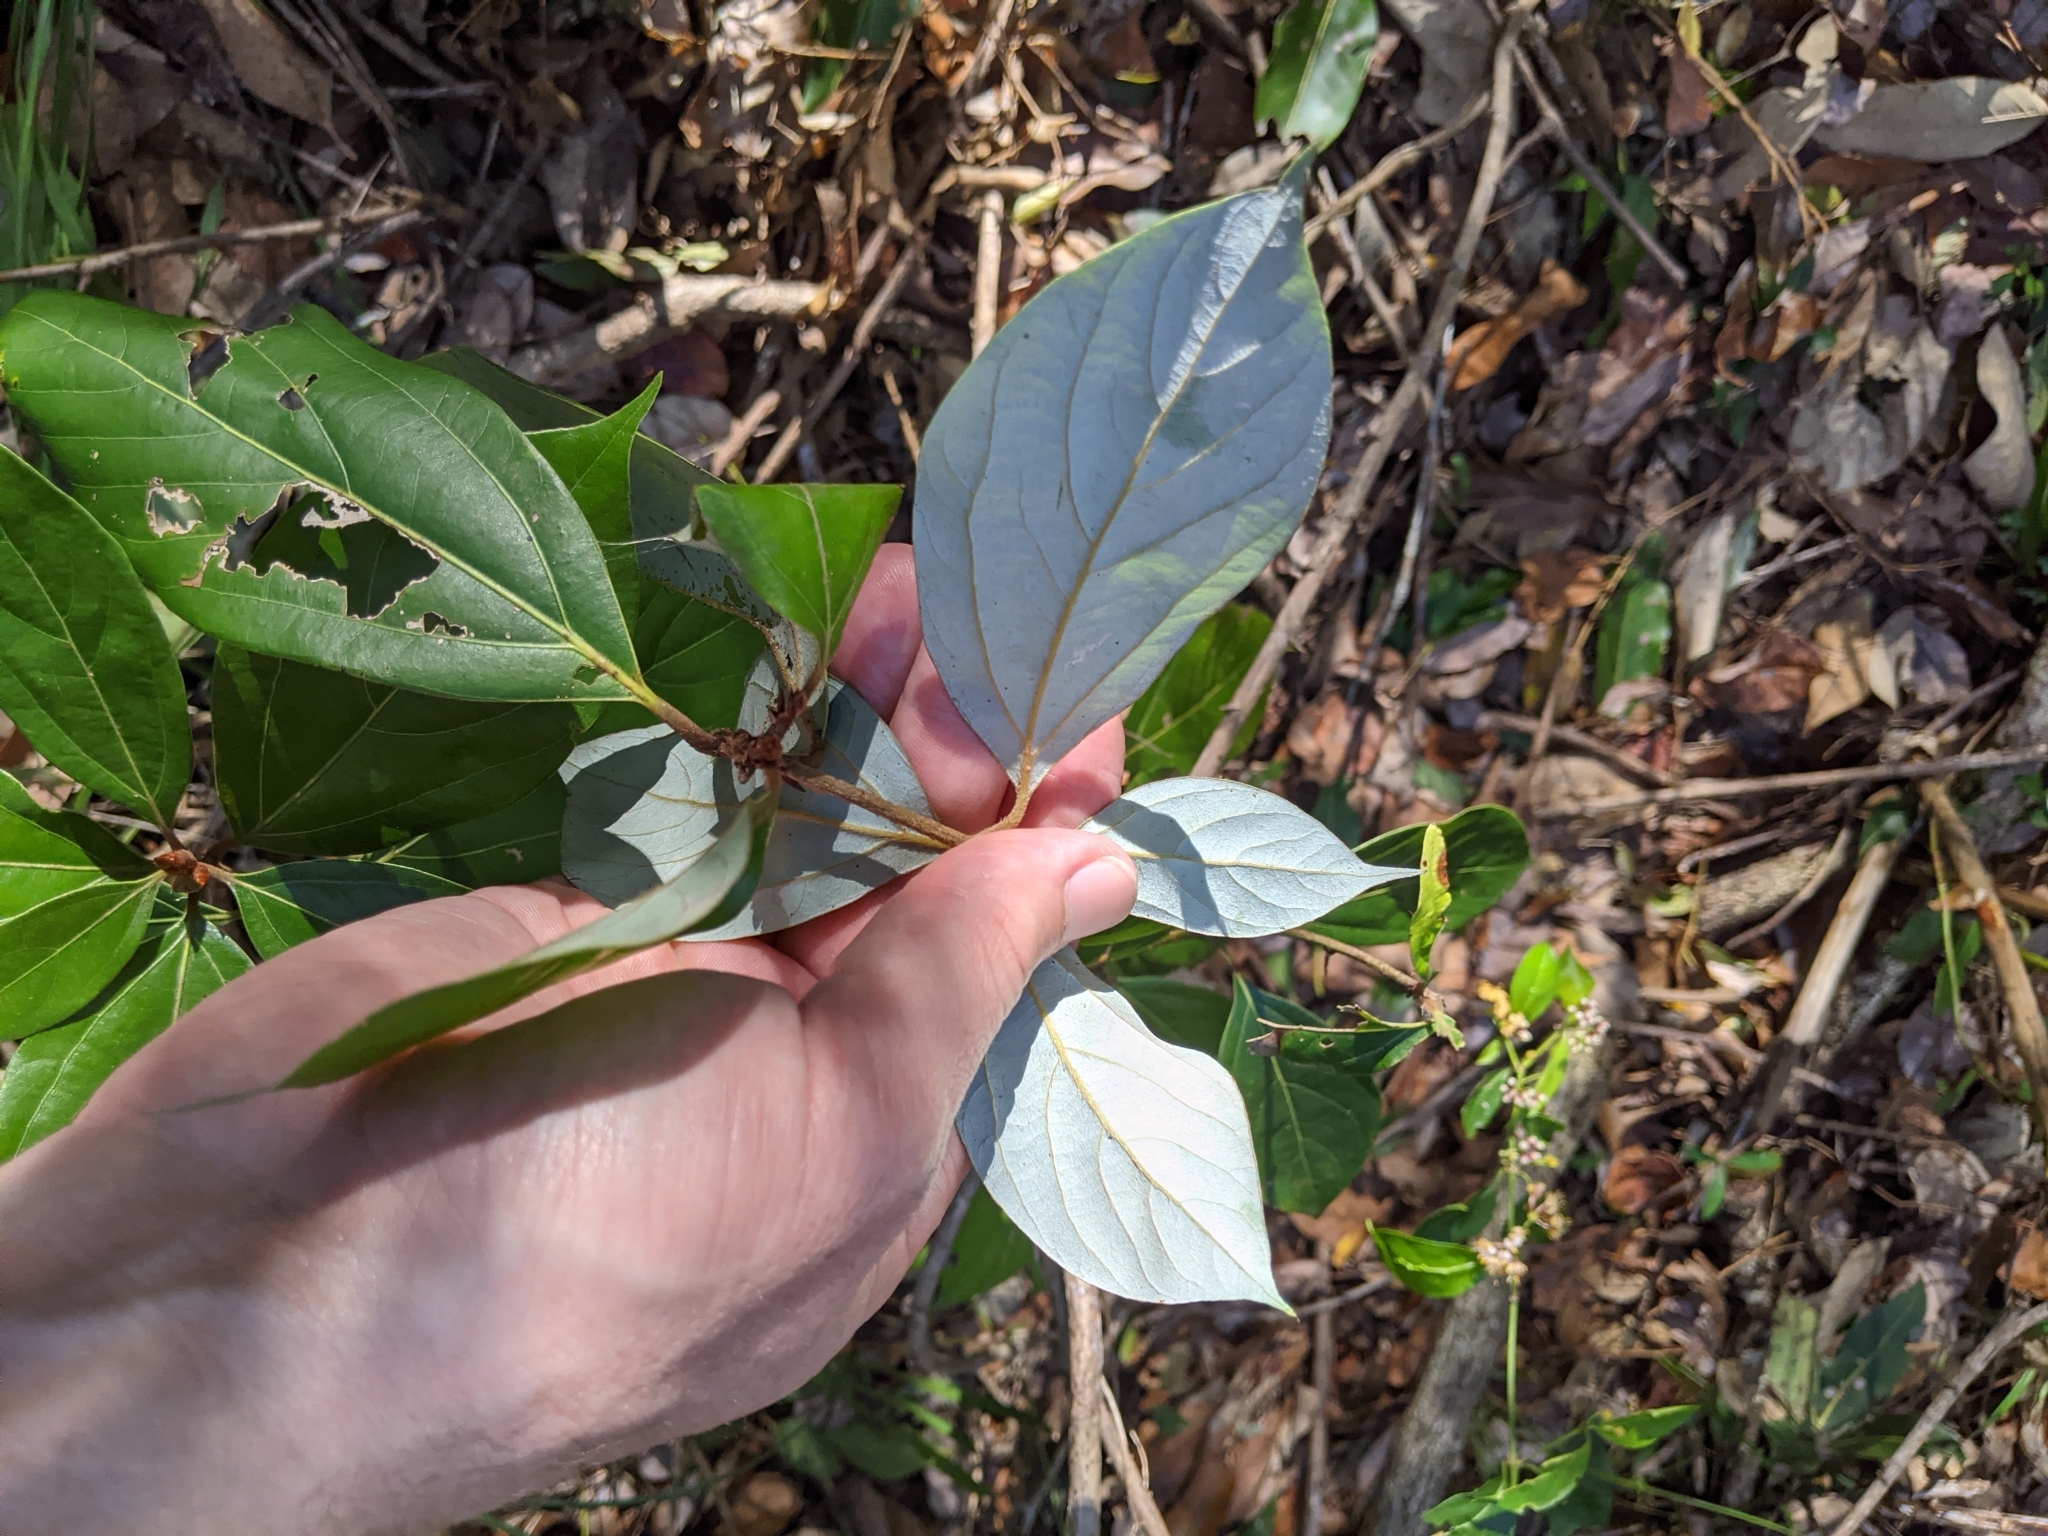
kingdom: Plantae
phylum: Tracheophyta
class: Magnoliopsida
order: Laurales
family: Lauraceae
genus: Neolitsea
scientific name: Neolitsea dealbata
